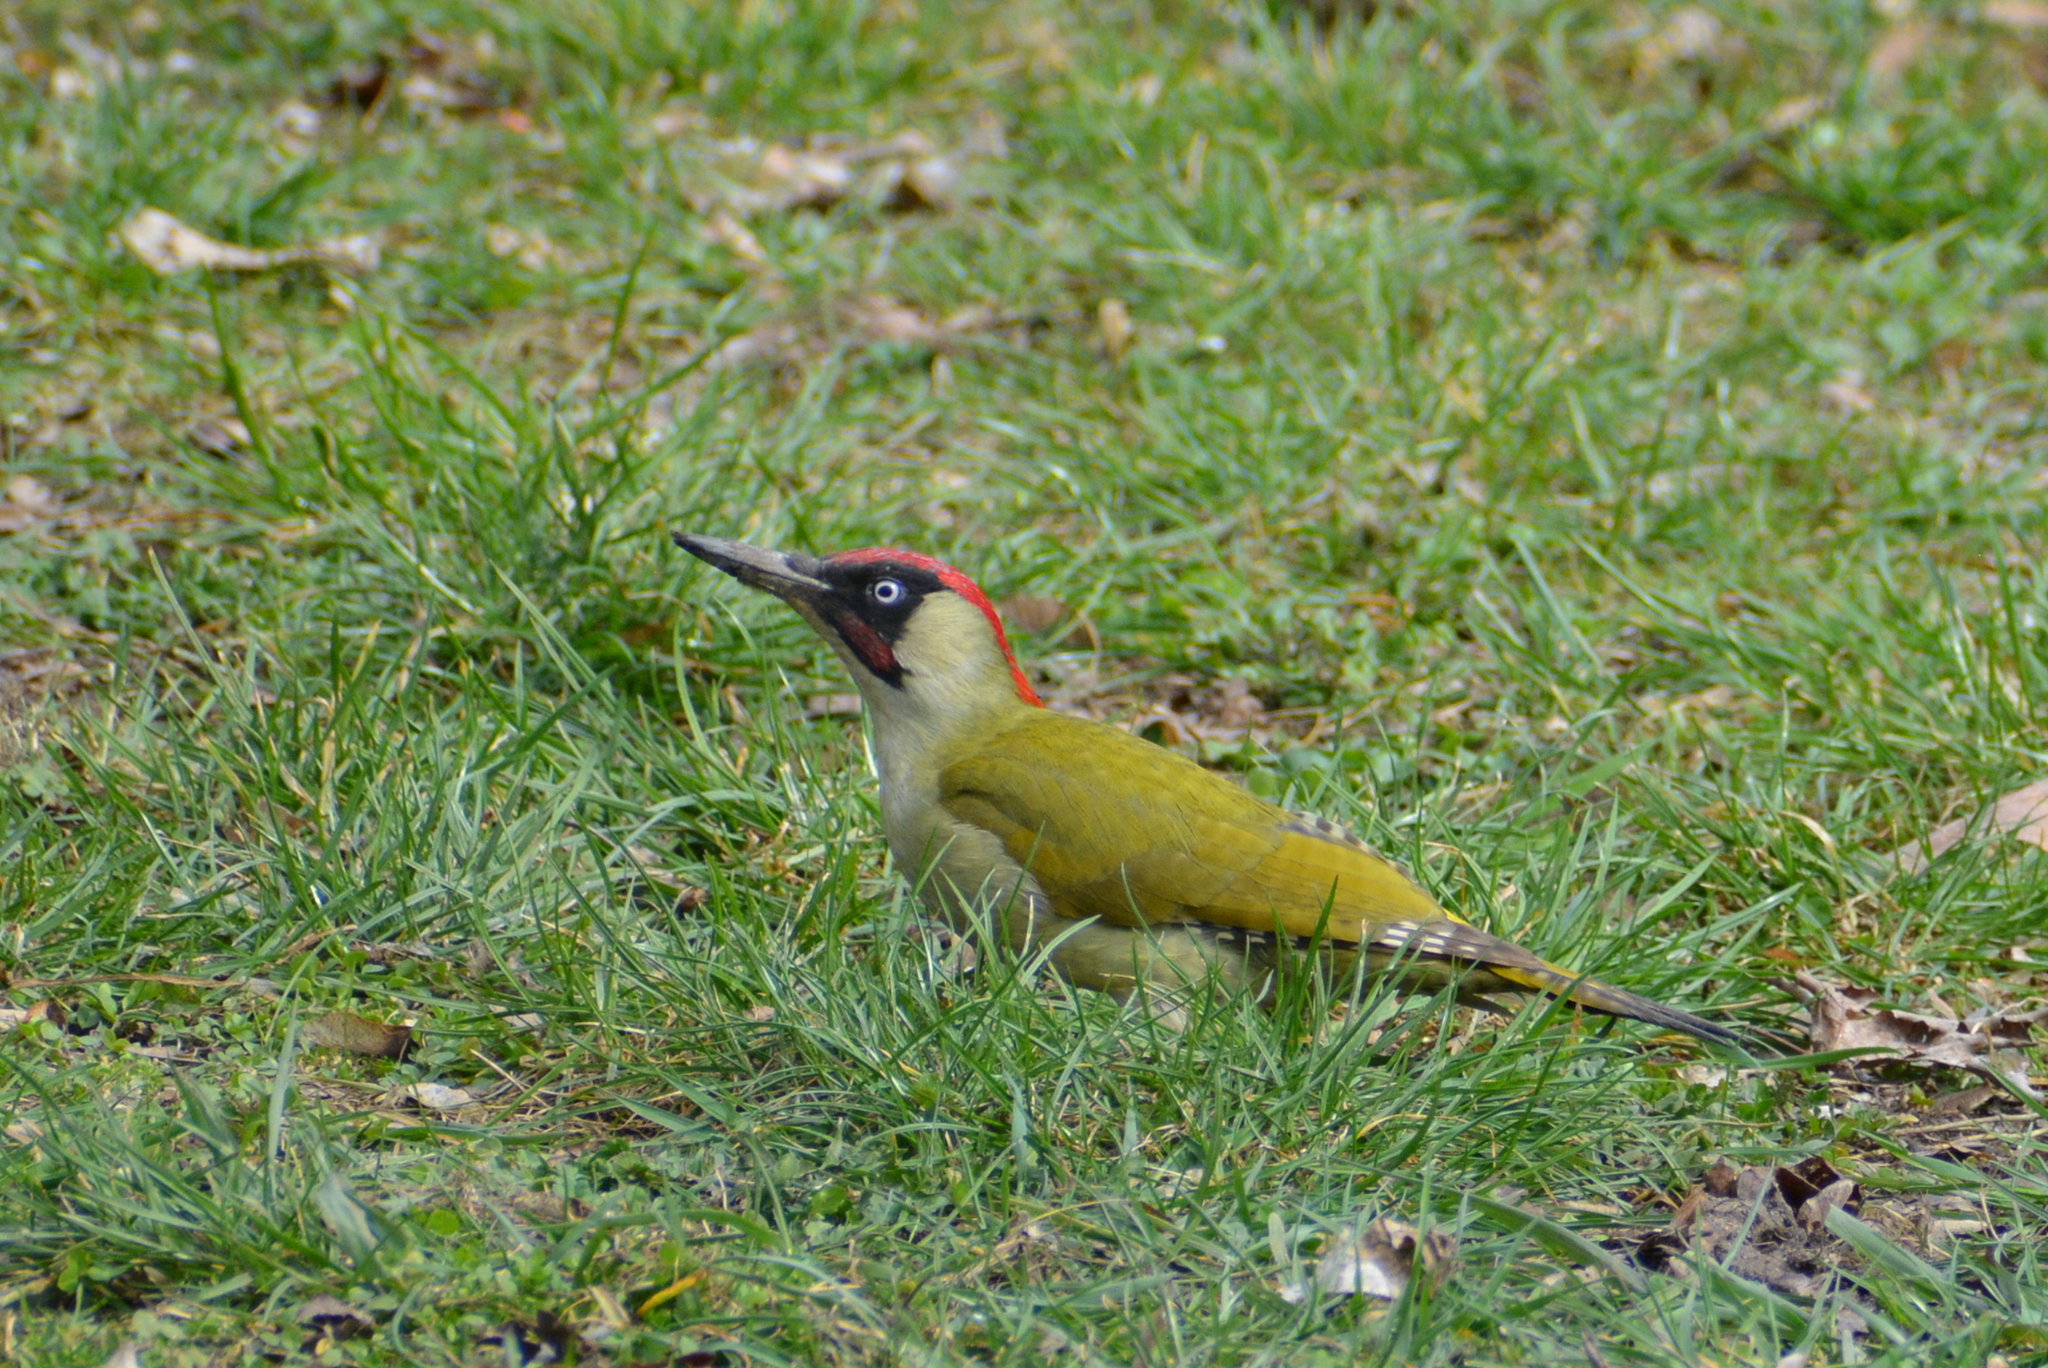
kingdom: Animalia
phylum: Chordata
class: Aves
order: Piciformes
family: Picidae
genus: Picus
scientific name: Picus viridis
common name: European green woodpecker
